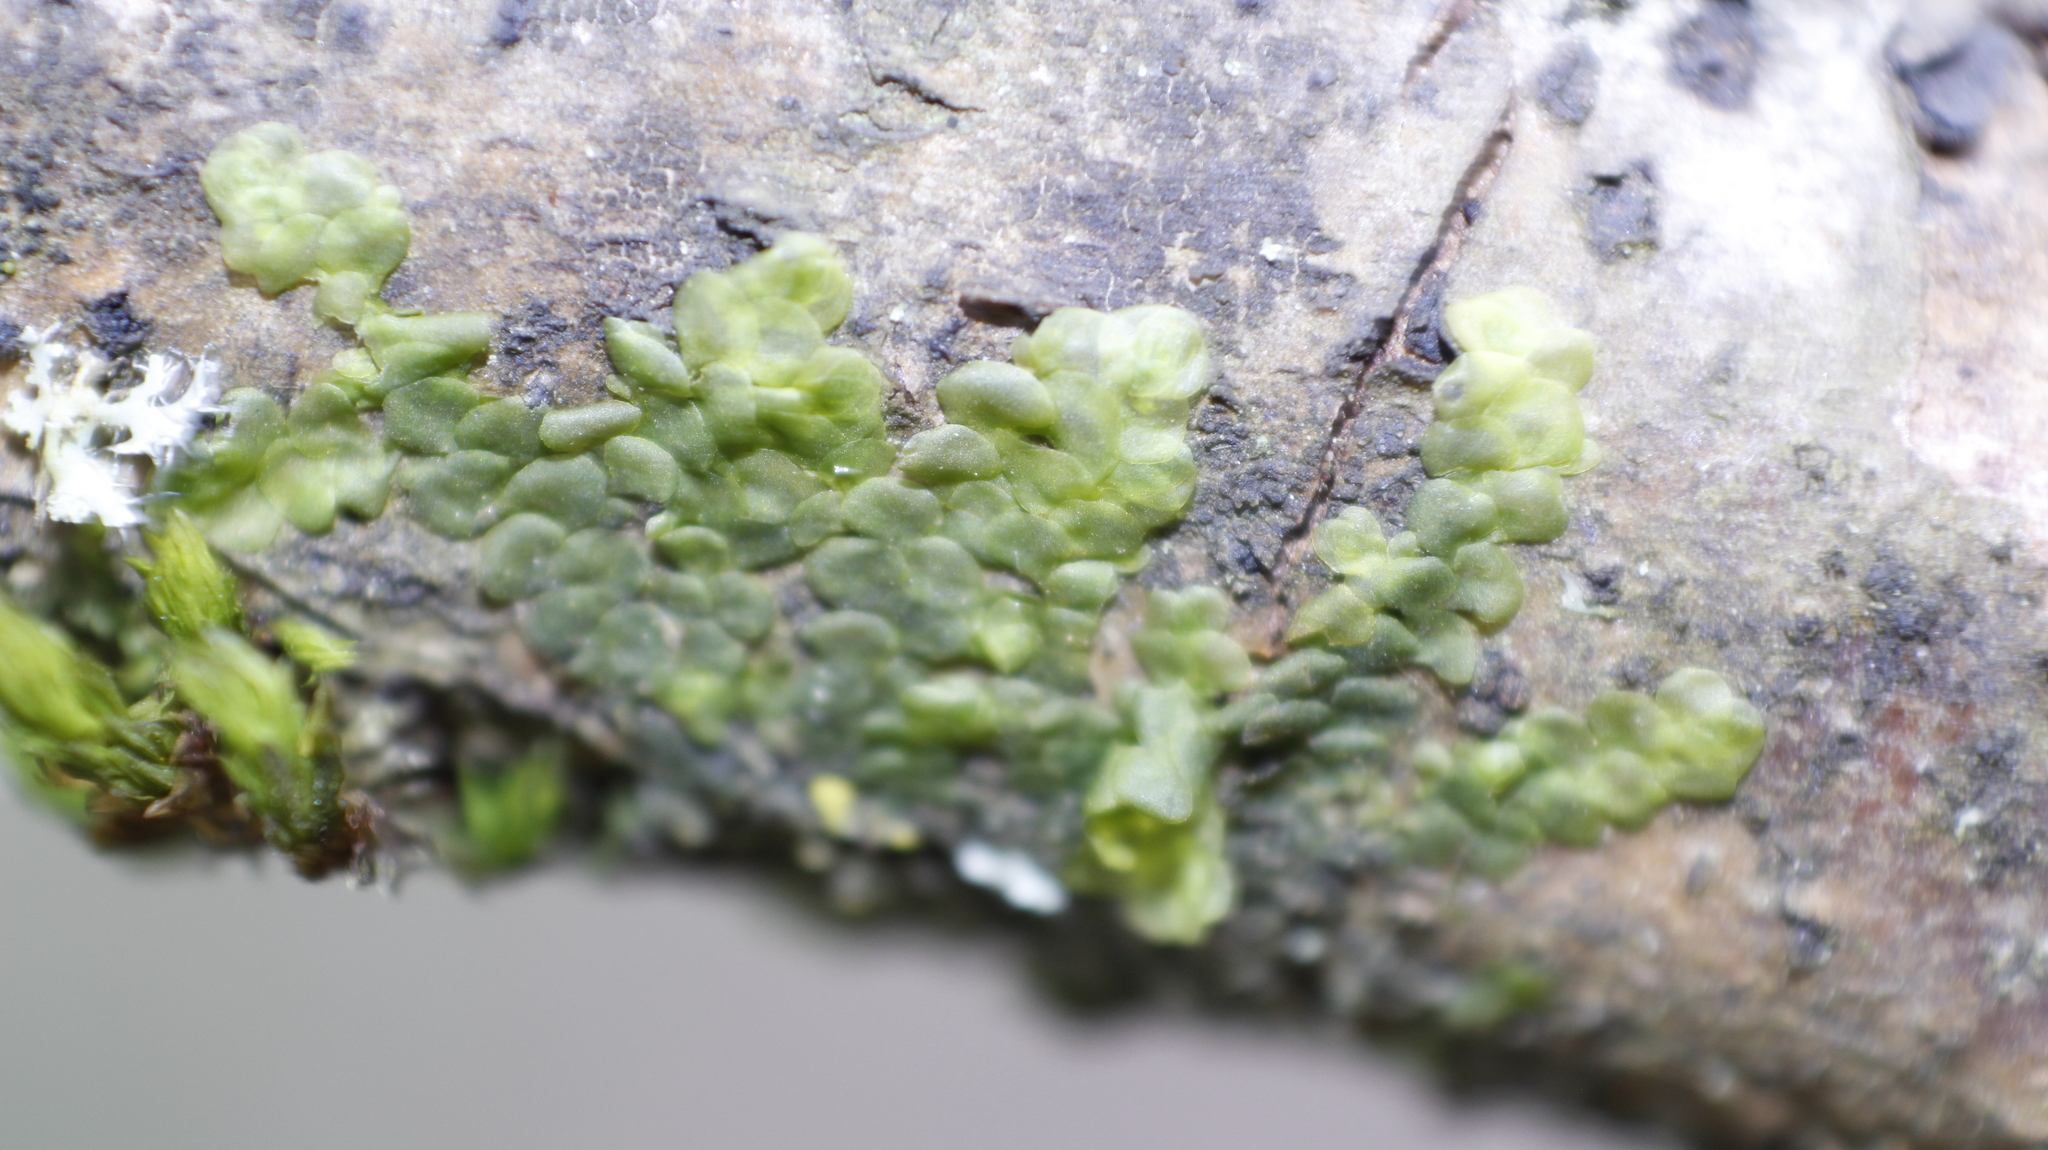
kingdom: Plantae
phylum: Marchantiophyta
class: Jungermanniopsida
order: Porellales
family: Radulaceae
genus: Radula
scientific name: Radula complanata
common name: Flat-leaved scalewort
